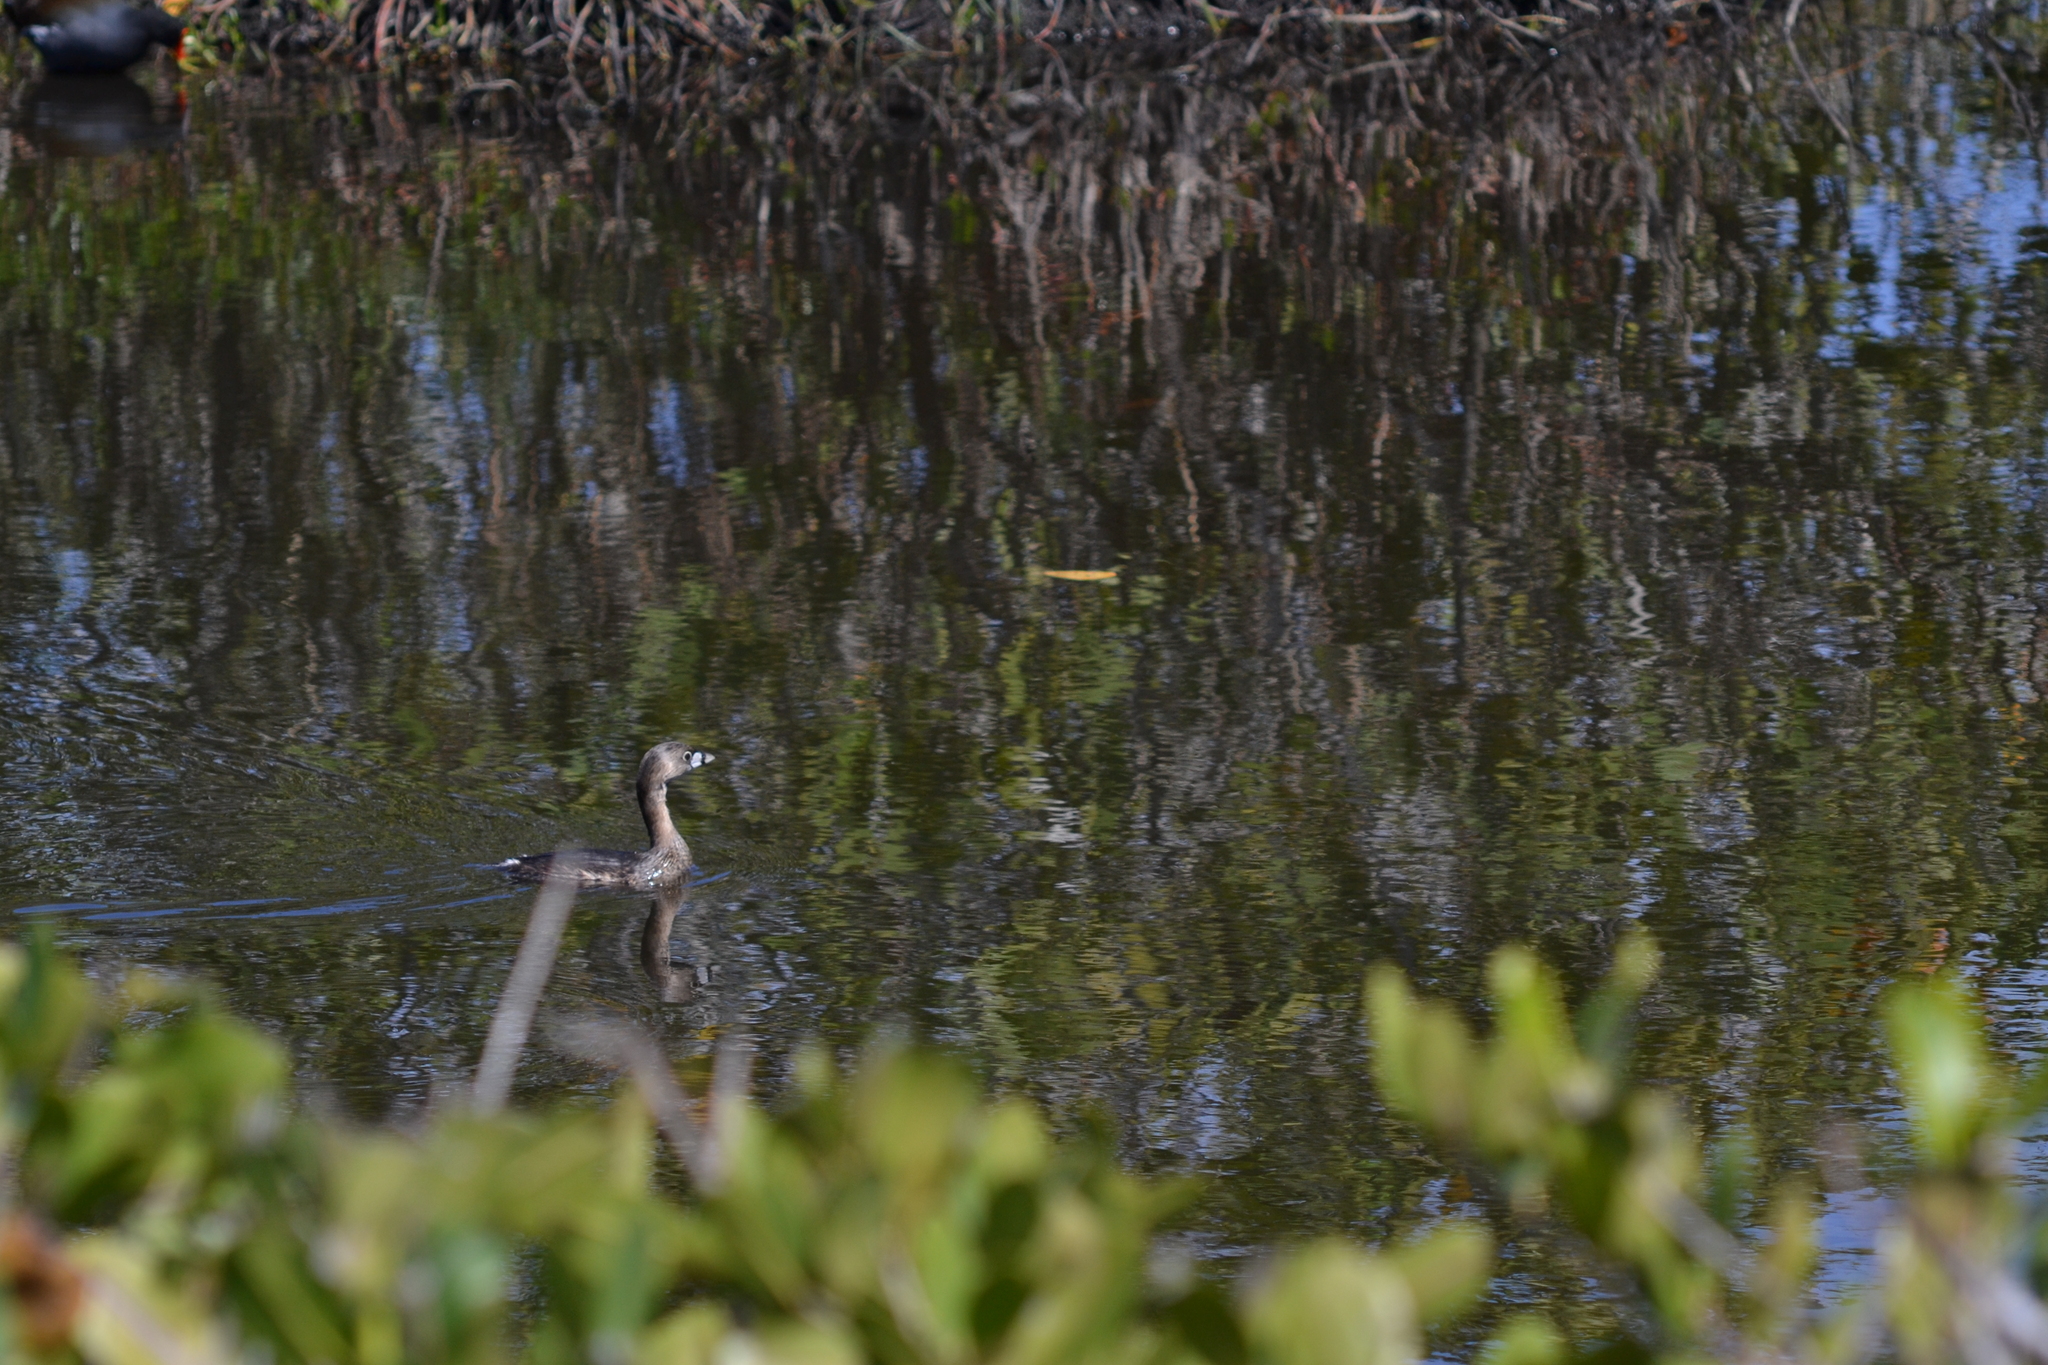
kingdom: Animalia
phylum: Chordata
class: Aves
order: Podicipediformes
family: Podicipedidae
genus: Podilymbus
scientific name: Podilymbus podiceps
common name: Pied-billed grebe
